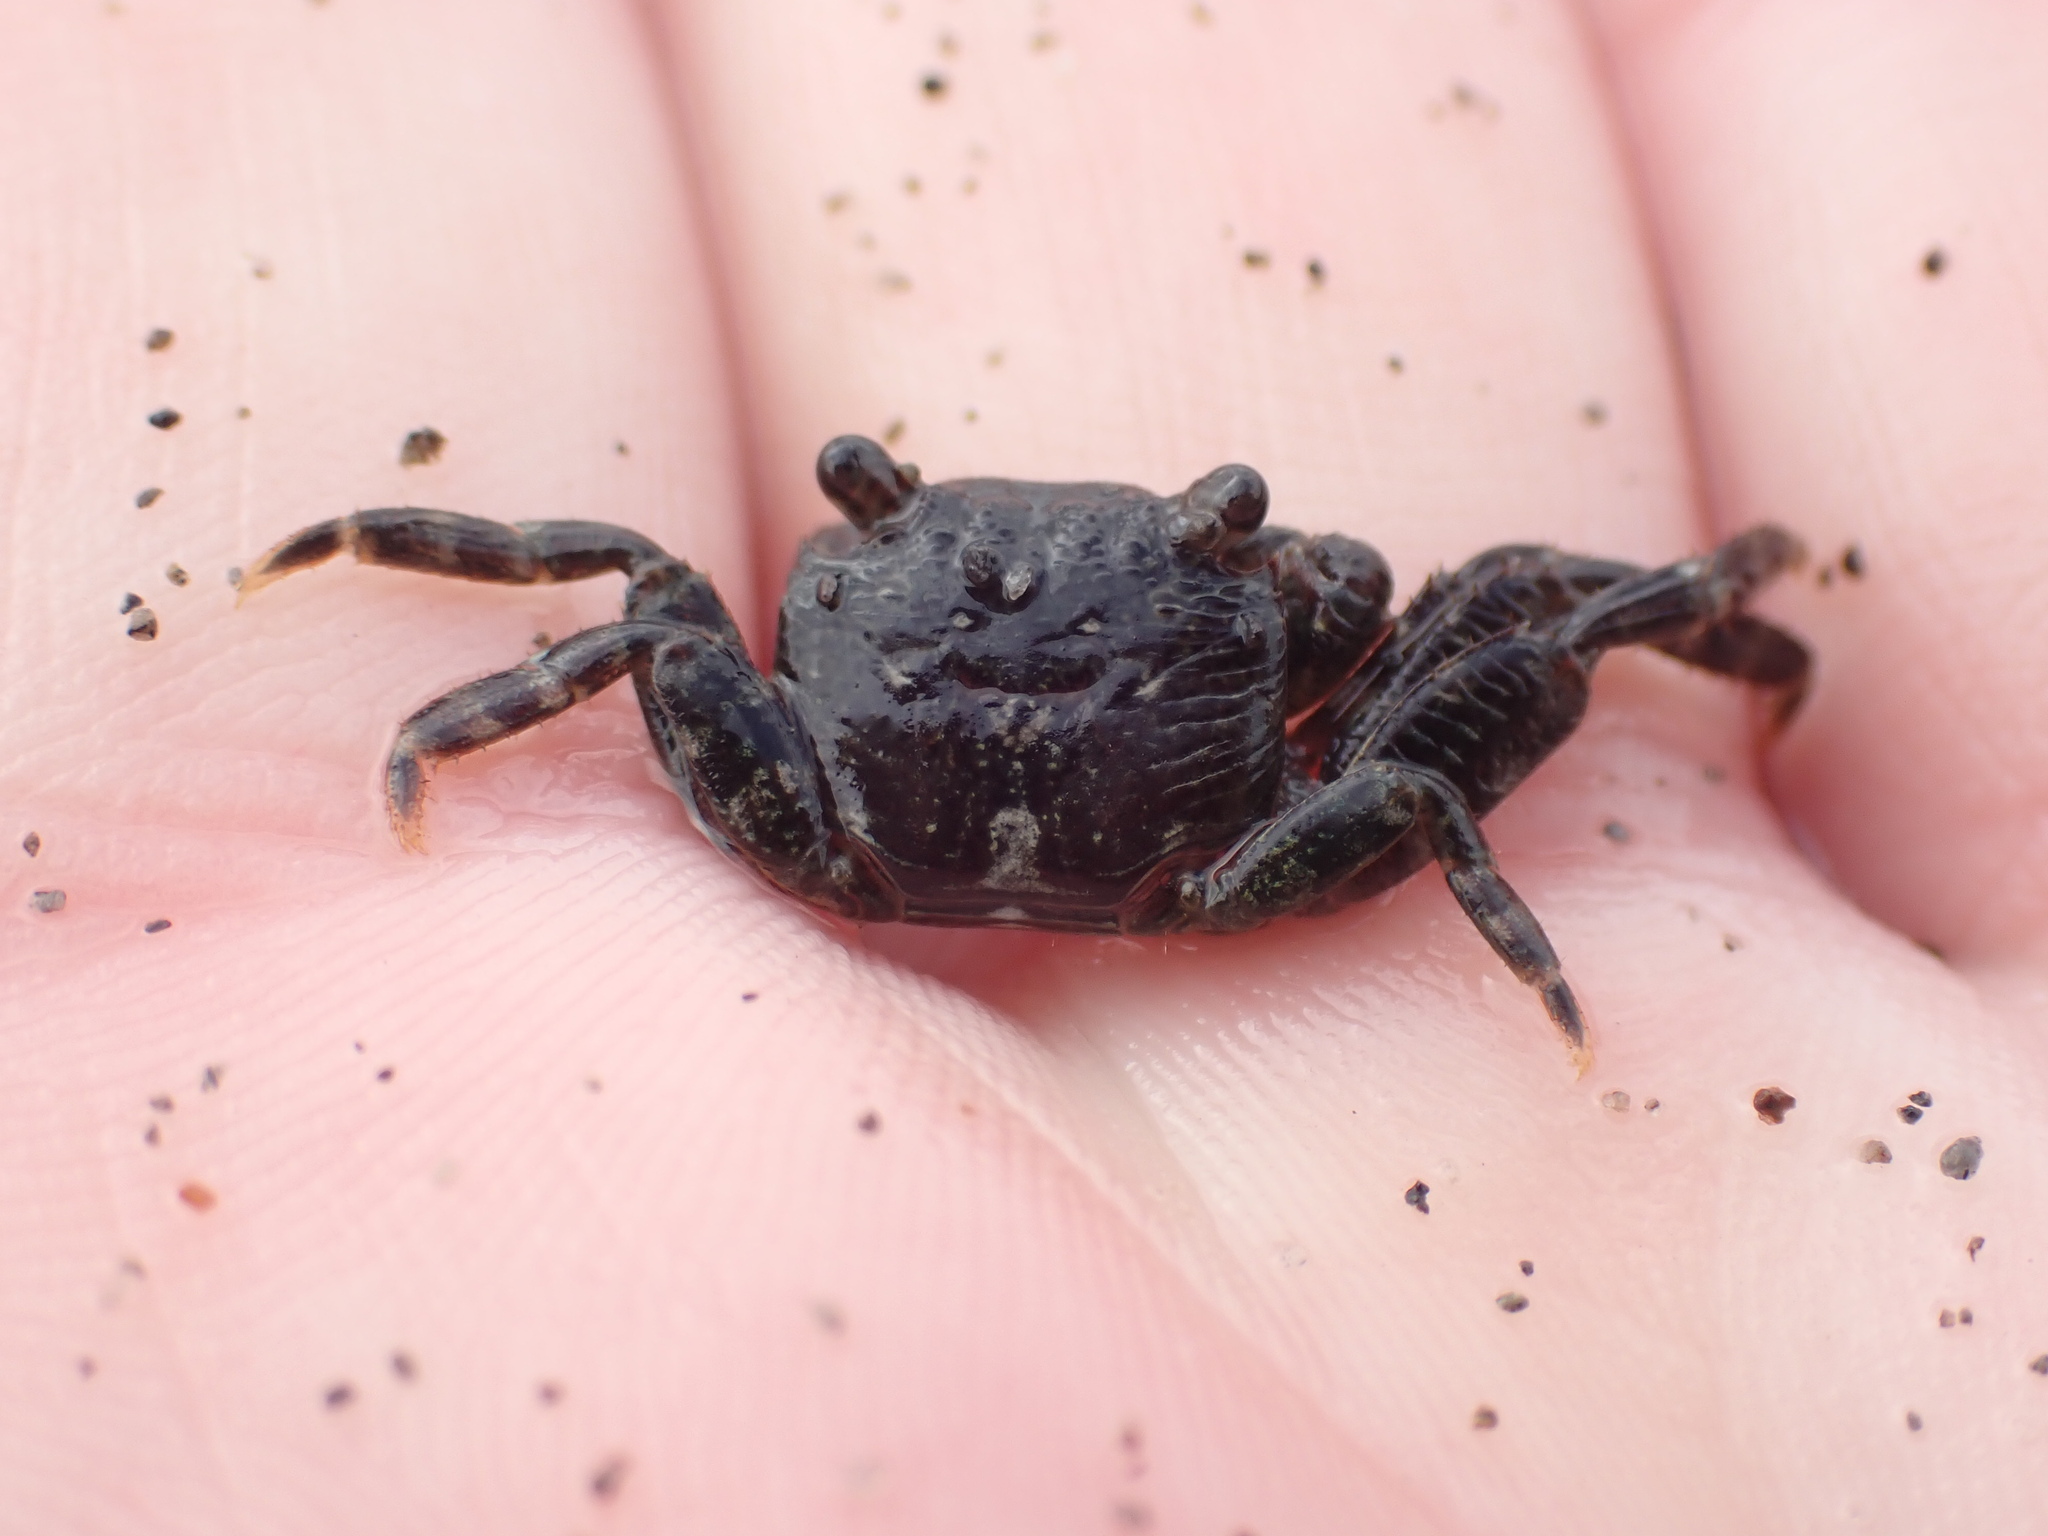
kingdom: Animalia
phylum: Arthropoda
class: Malacostraca
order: Decapoda
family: Grapsidae
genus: Leptograpsus
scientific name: Leptograpsus variegatus
